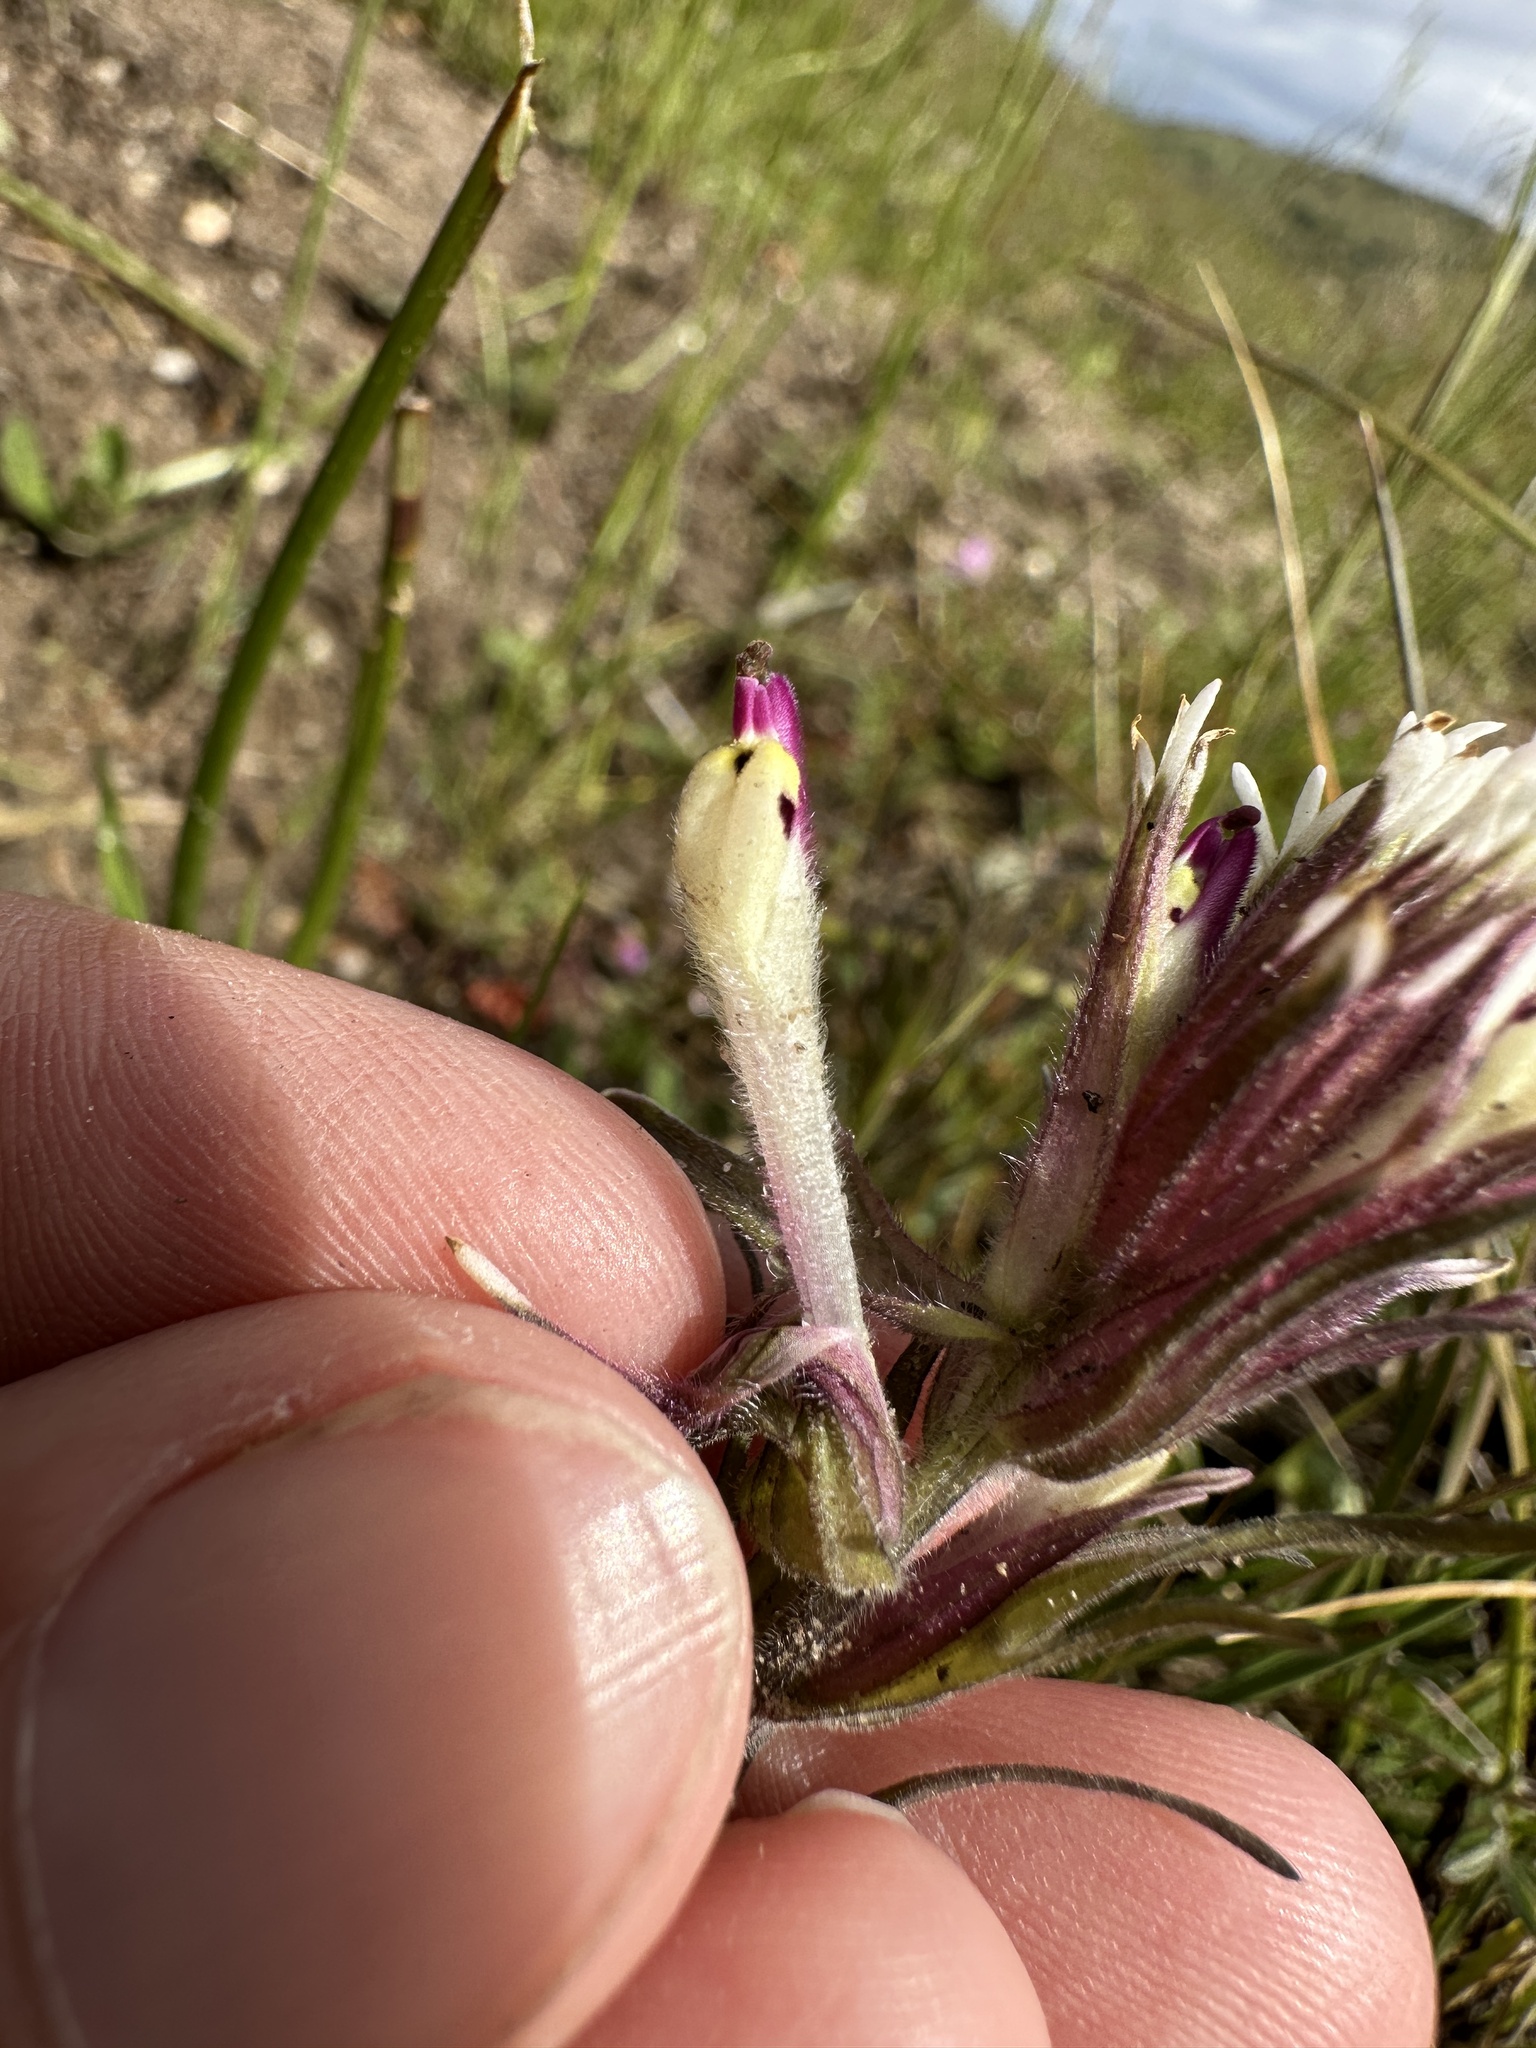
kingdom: Plantae
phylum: Tracheophyta
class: Magnoliopsida
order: Lamiales
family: Orobanchaceae
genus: Castilleja
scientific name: Castilleja densiflora
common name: Dense-flower indian paintbrush
